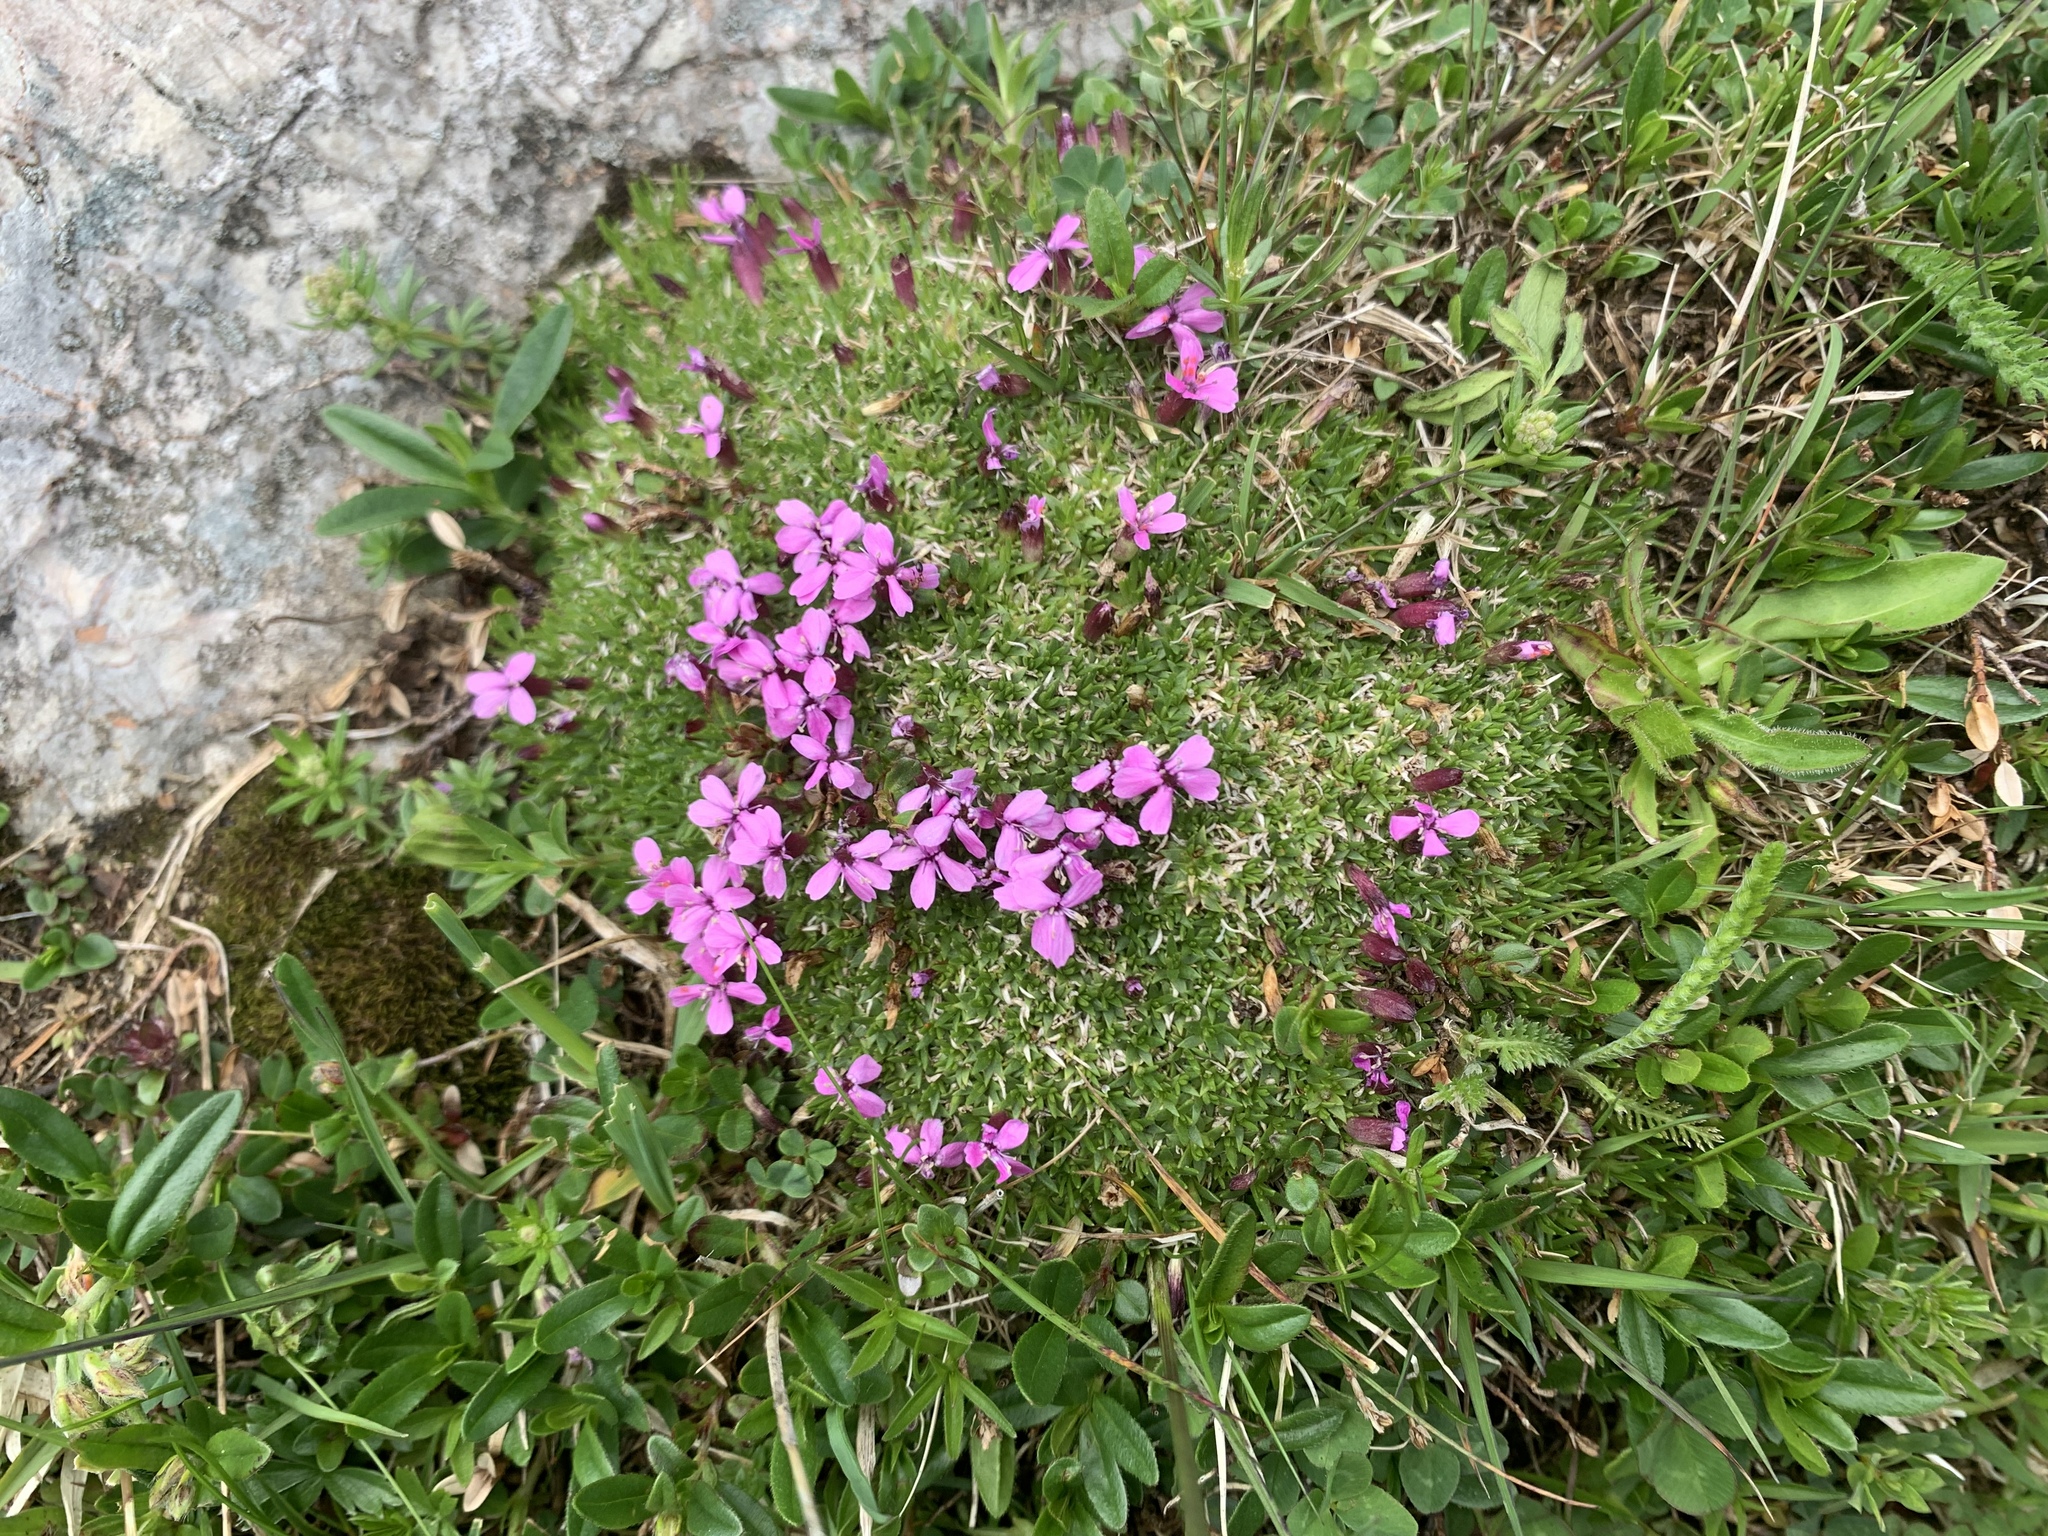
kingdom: Plantae
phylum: Tracheophyta
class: Magnoliopsida
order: Caryophyllales
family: Caryophyllaceae
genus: Silene
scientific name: Silene acaulis
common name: Moss campion
